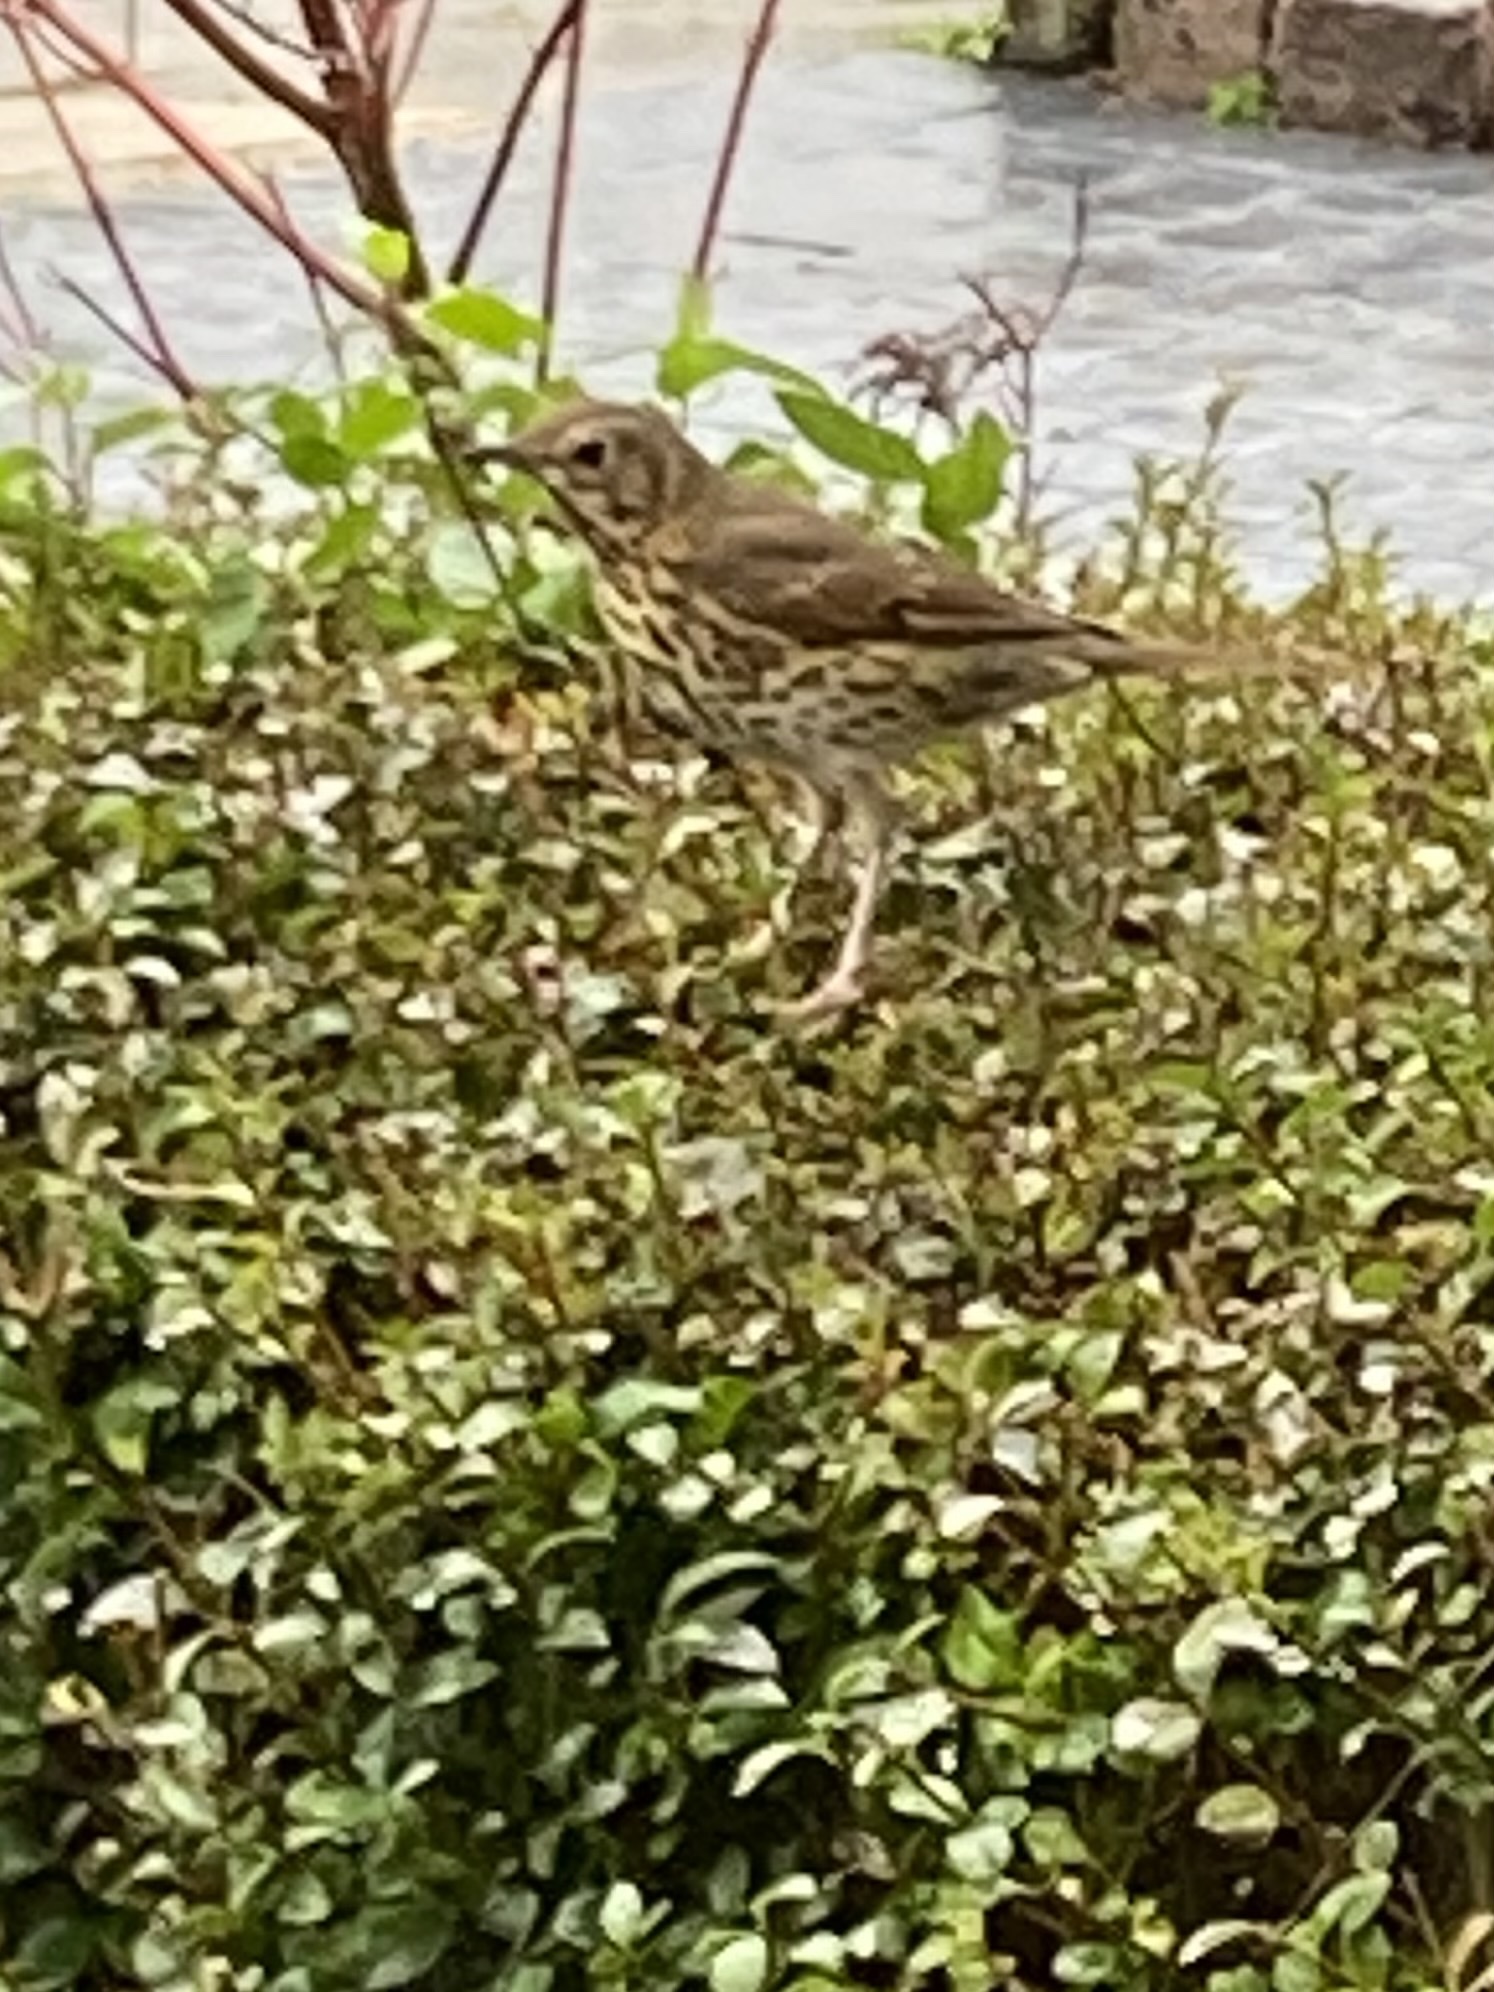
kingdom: Animalia
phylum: Chordata
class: Aves
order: Passeriformes
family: Turdidae
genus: Turdus
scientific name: Turdus philomelos
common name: Song thrush
